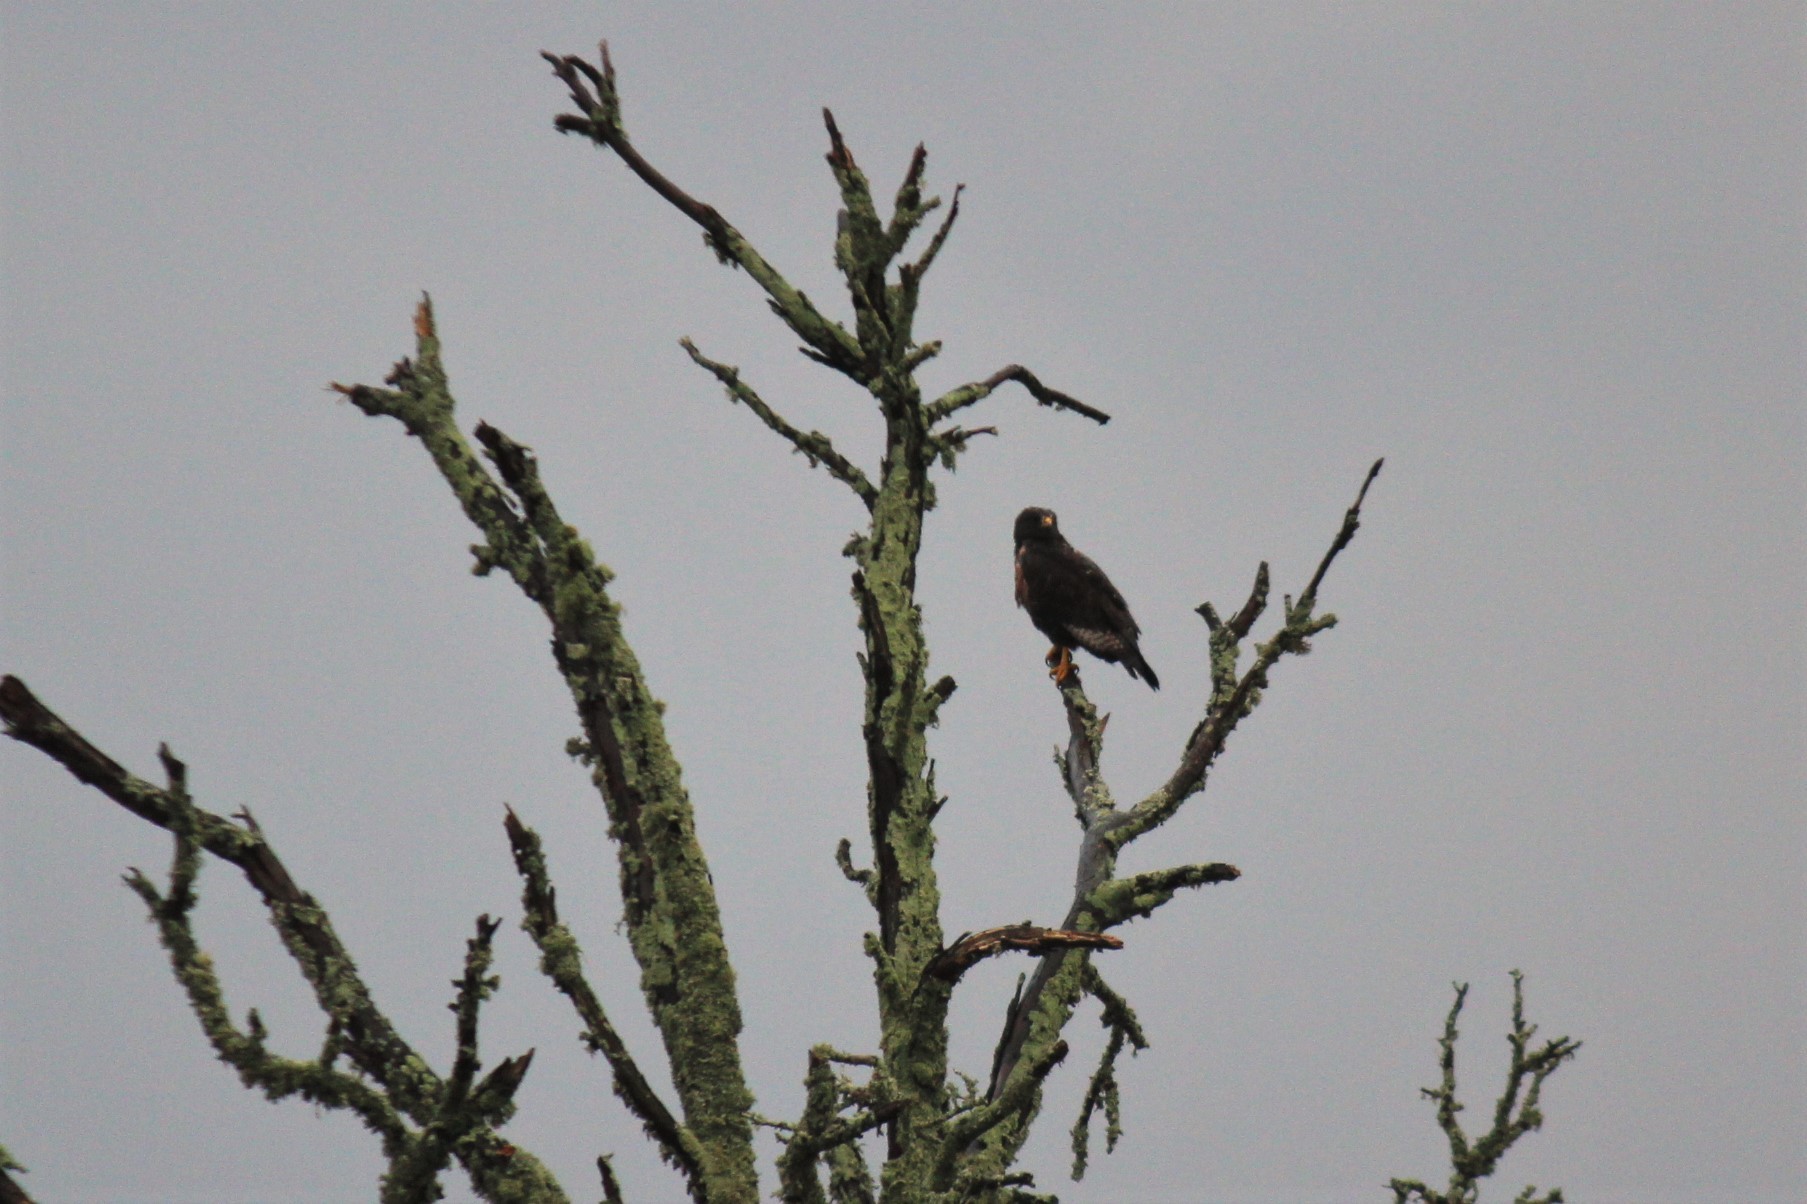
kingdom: Animalia
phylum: Chordata
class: Aves
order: Accipitriformes
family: Accipitridae
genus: Buteo
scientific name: Buteo rufofuscus
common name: Jackal buzzard
